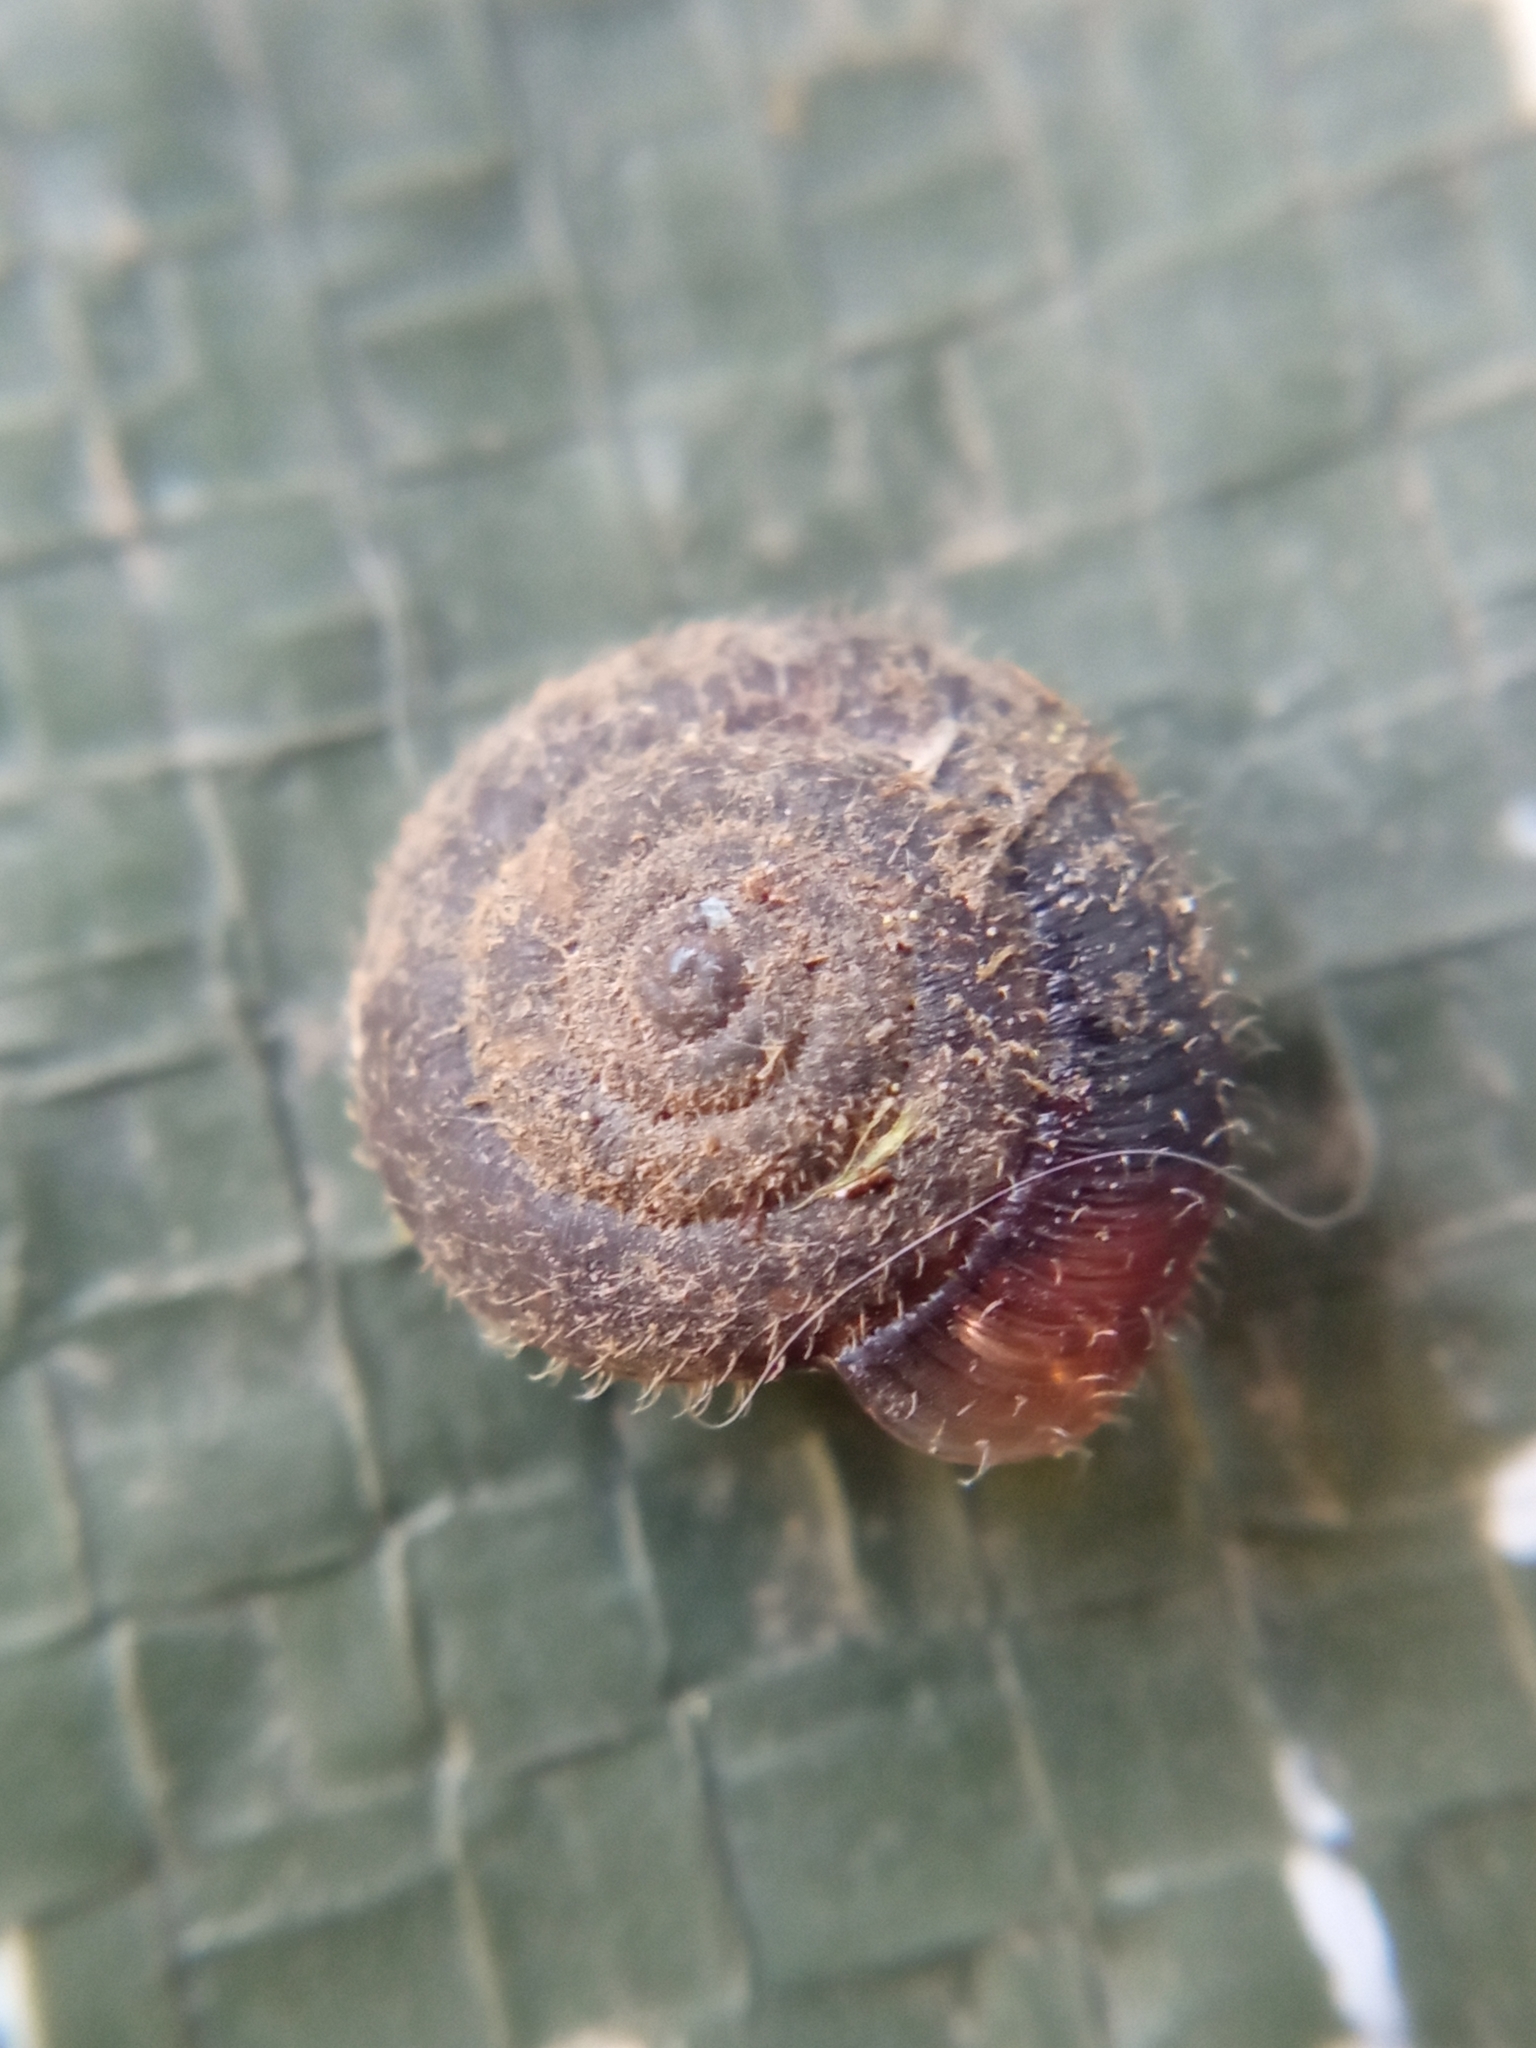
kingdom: Animalia
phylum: Mollusca
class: Gastropoda
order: Stylommatophora
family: Hygromiidae
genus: Trochulus
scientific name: Trochulus hispidus
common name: Hairy snail
